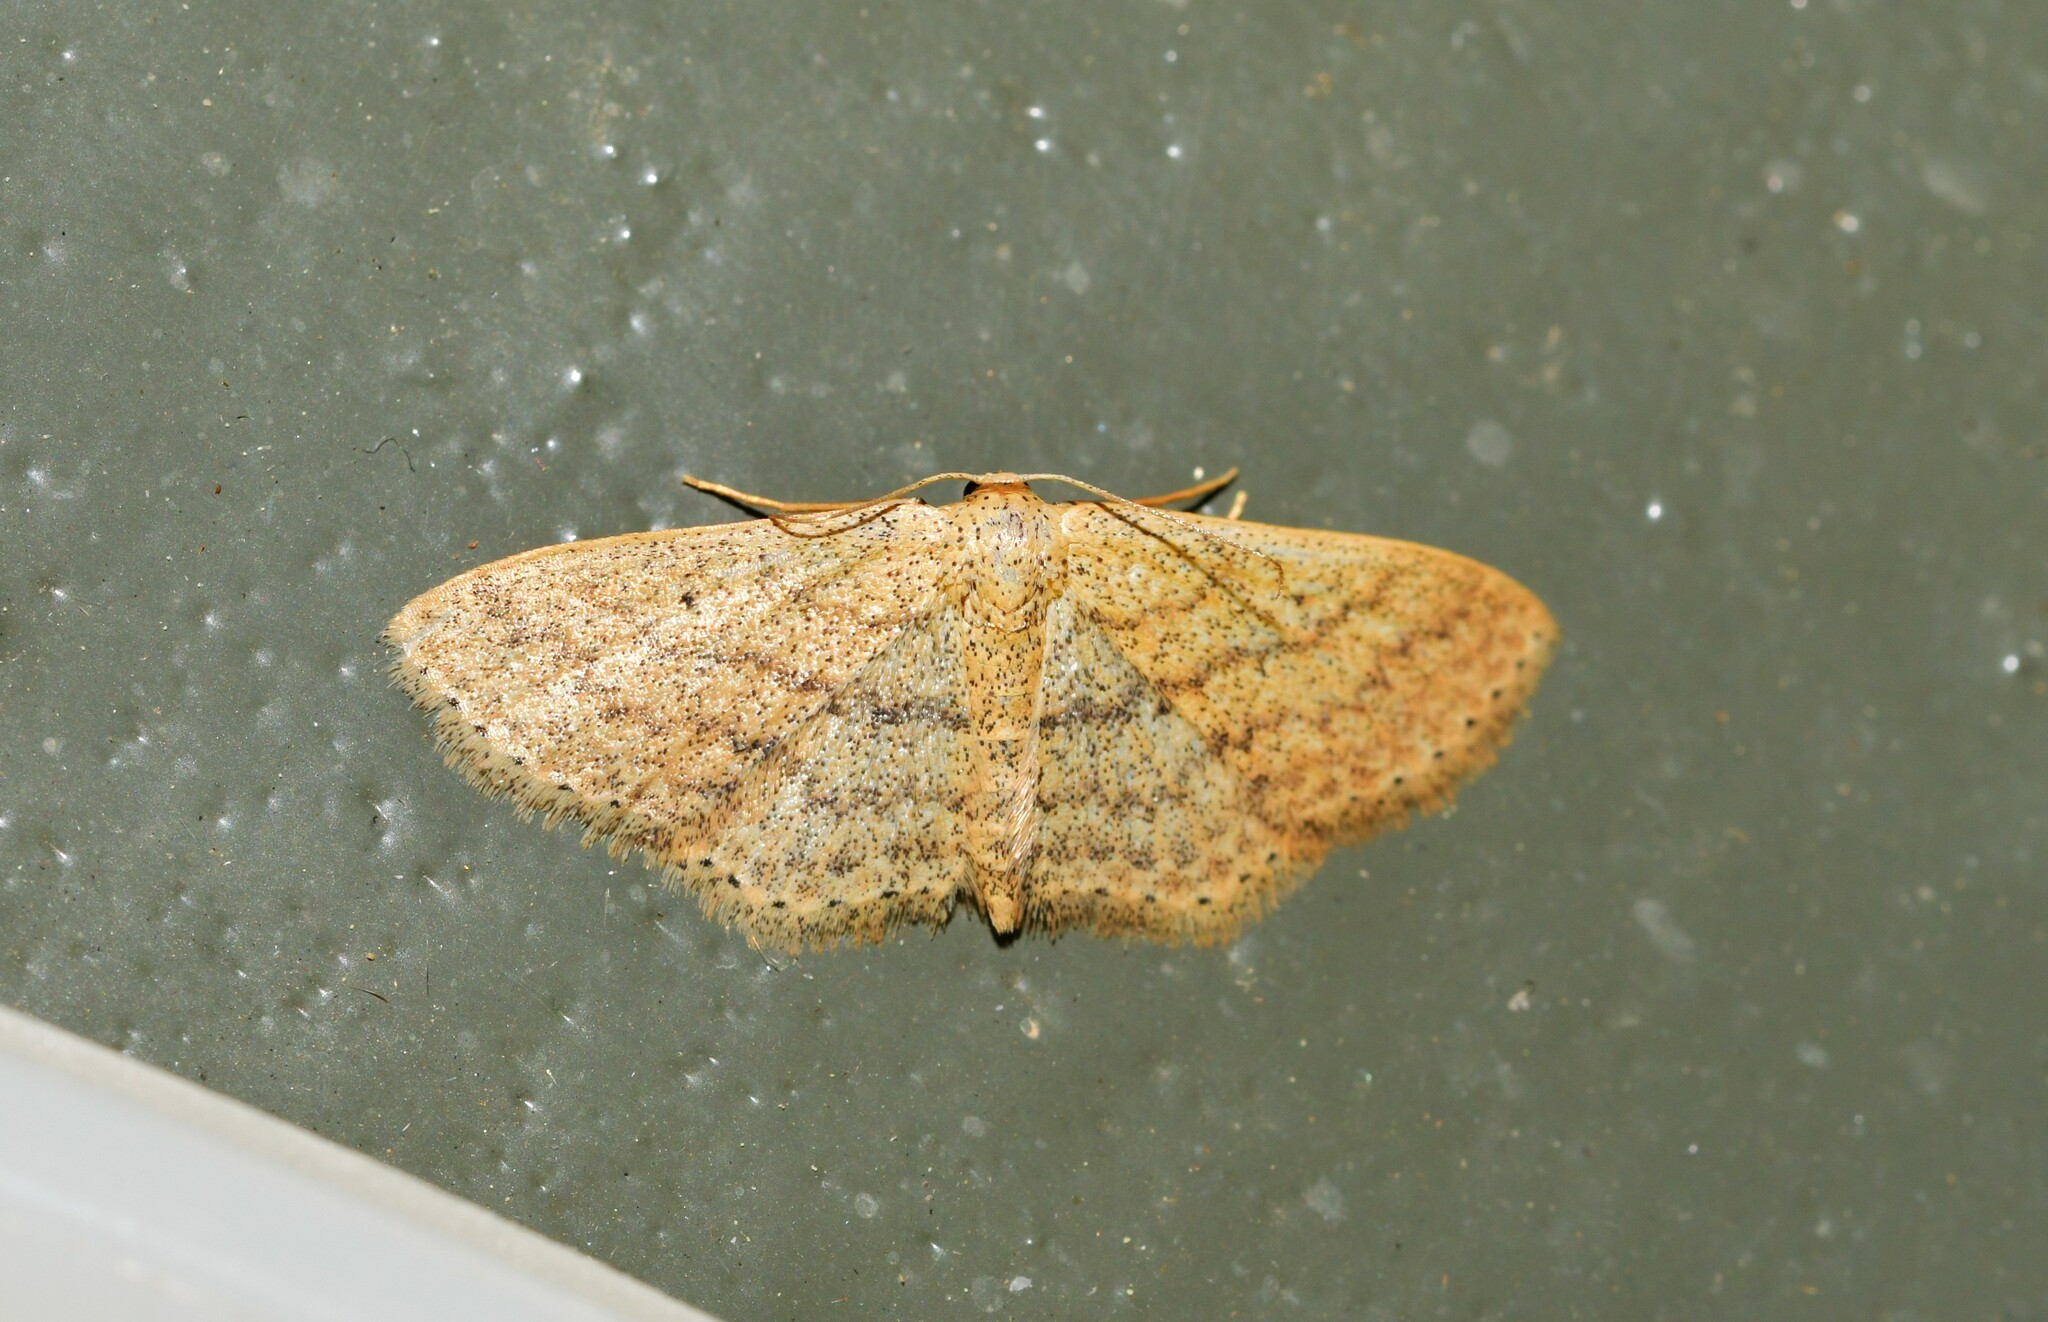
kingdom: Animalia
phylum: Arthropoda
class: Insecta
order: Lepidoptera
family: Geometridae
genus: Scopula
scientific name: Scopula minorata
